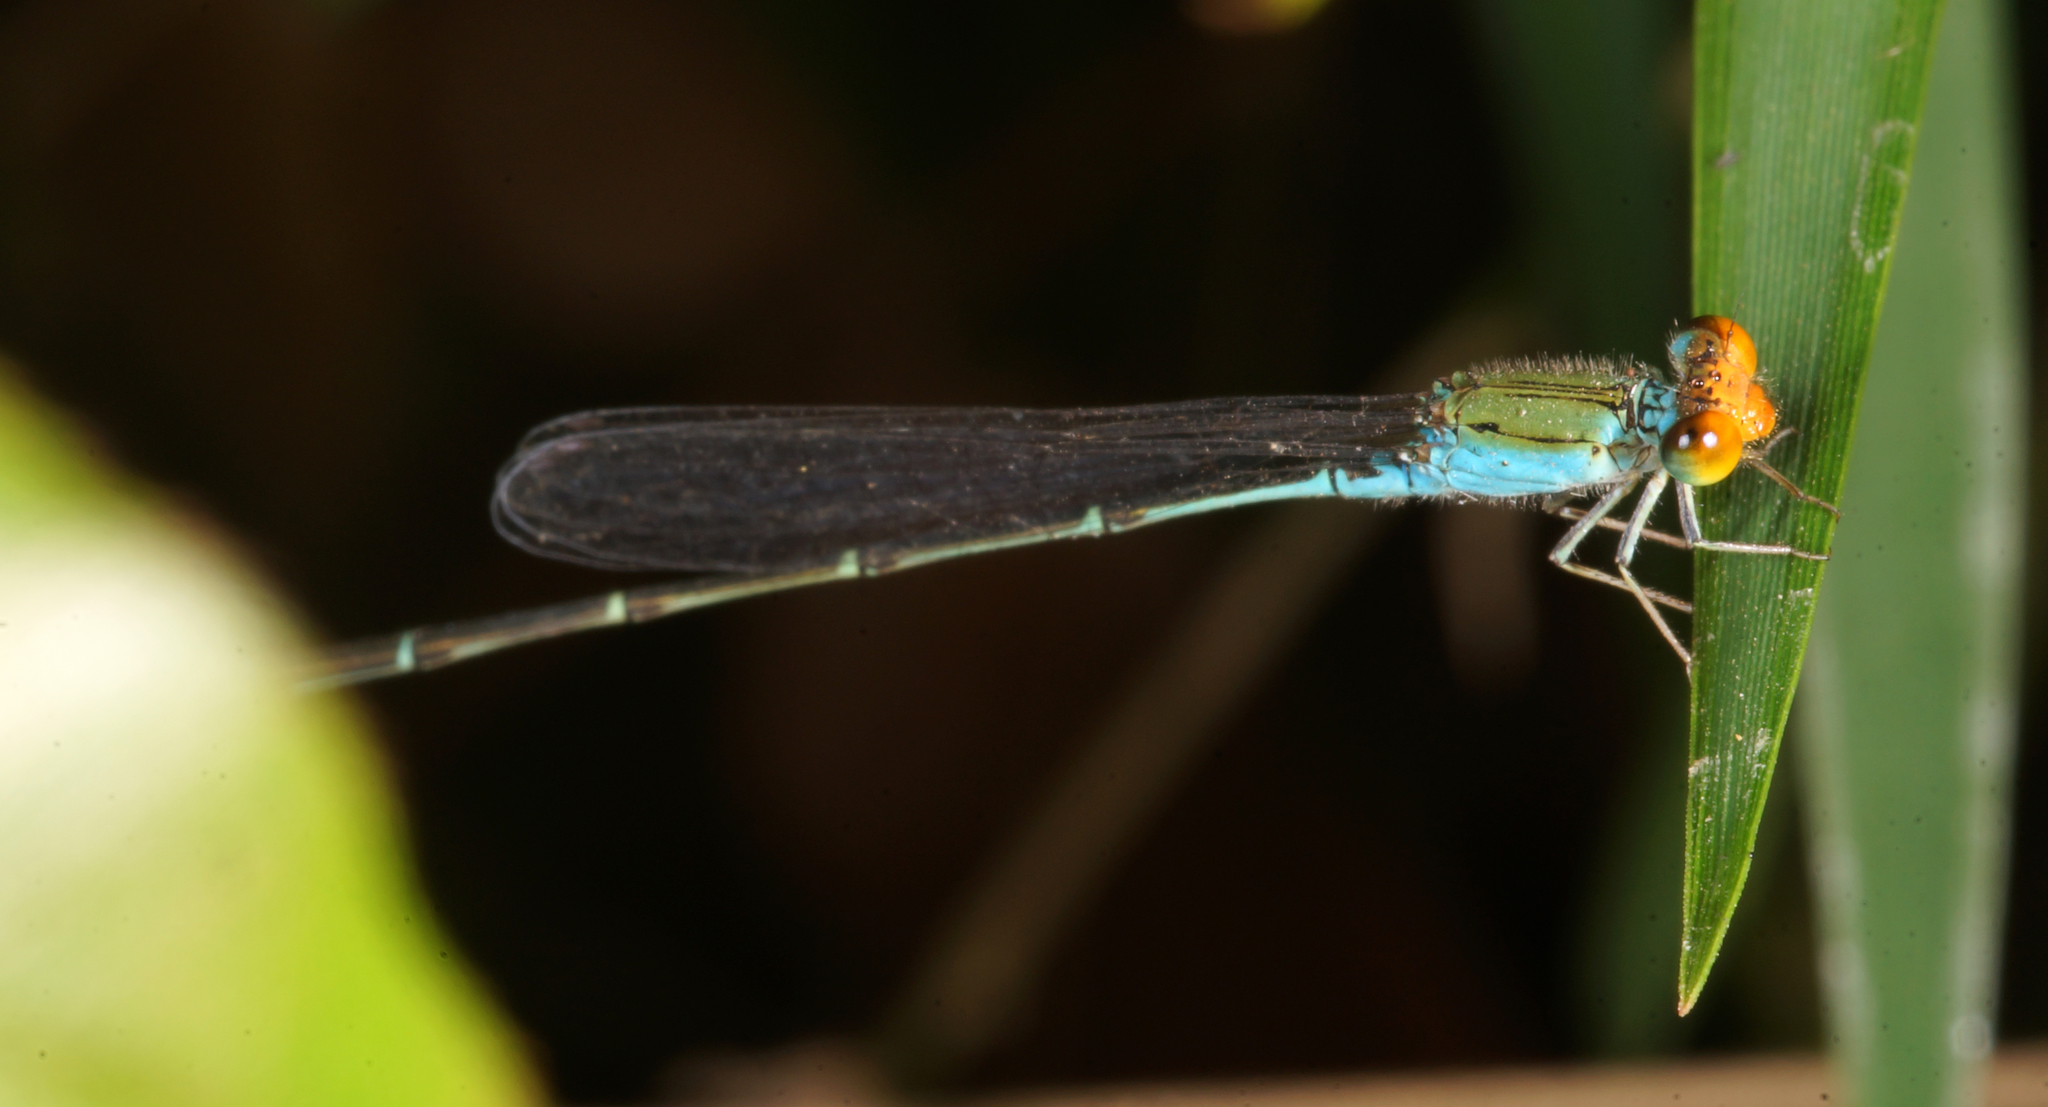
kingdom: Animalia
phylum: Arthropoda
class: Insecta
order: Odonata
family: Coenagrionidae
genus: Pseudagrion
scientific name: Pseudagrion rubriceps
